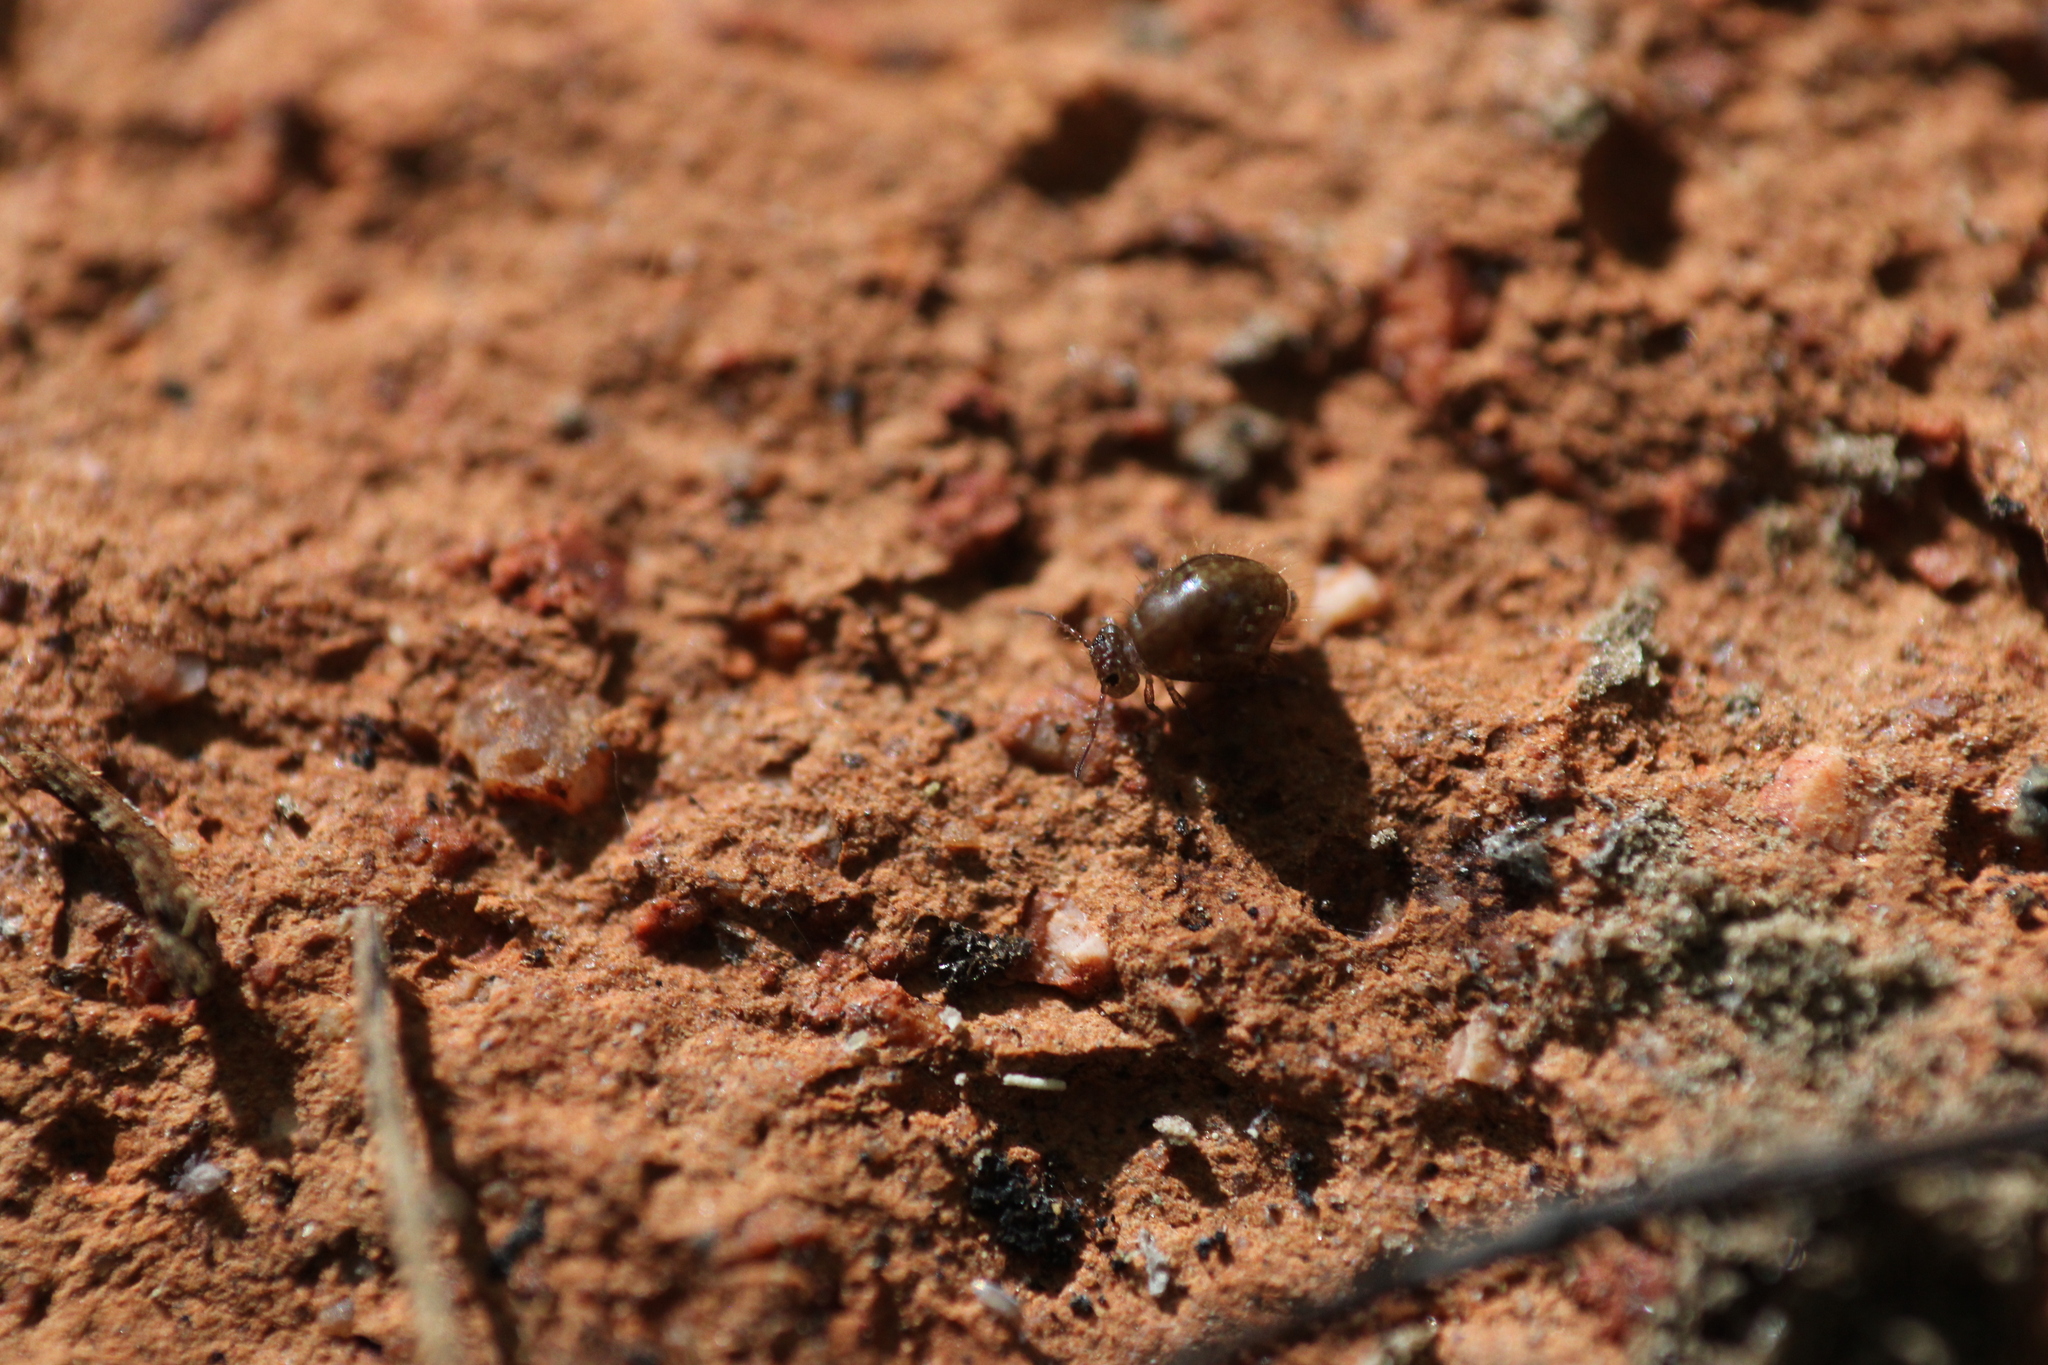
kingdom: Animalia
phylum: Arthropoda
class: Collembola
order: Symphypleona
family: Sminthuridae
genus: Allacma
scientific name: Allacma fusca
